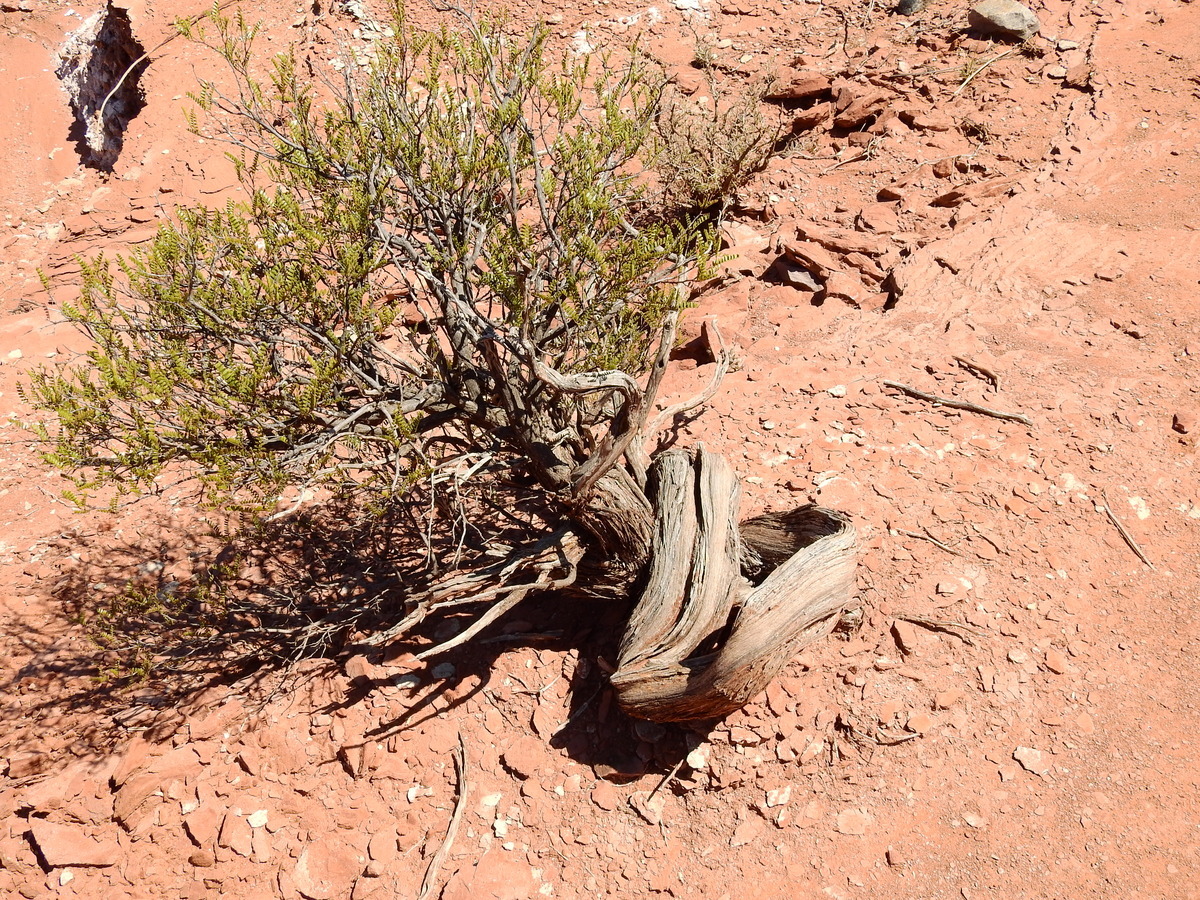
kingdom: Plantae
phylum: Tracheophyta
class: Magnoliopsida
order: Fabales
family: Fabaceae
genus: Zuccagnia
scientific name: Zuccagnia punctata
